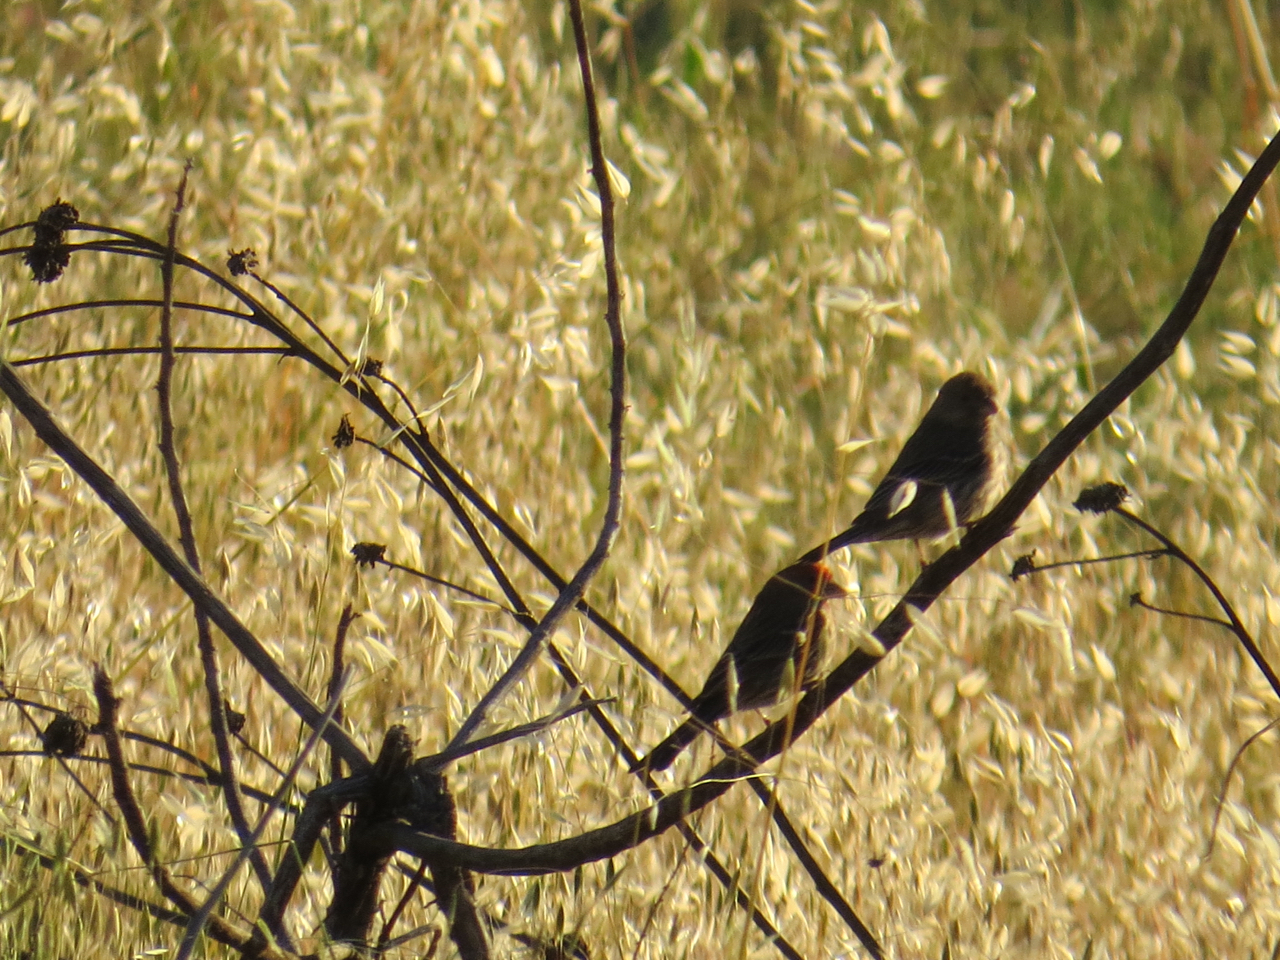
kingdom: Animalia
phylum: Chordata
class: Aves
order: Passeriformes
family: Fringillidae
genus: Haemorhous
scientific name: Haemorhous mexicanus
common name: House finch
